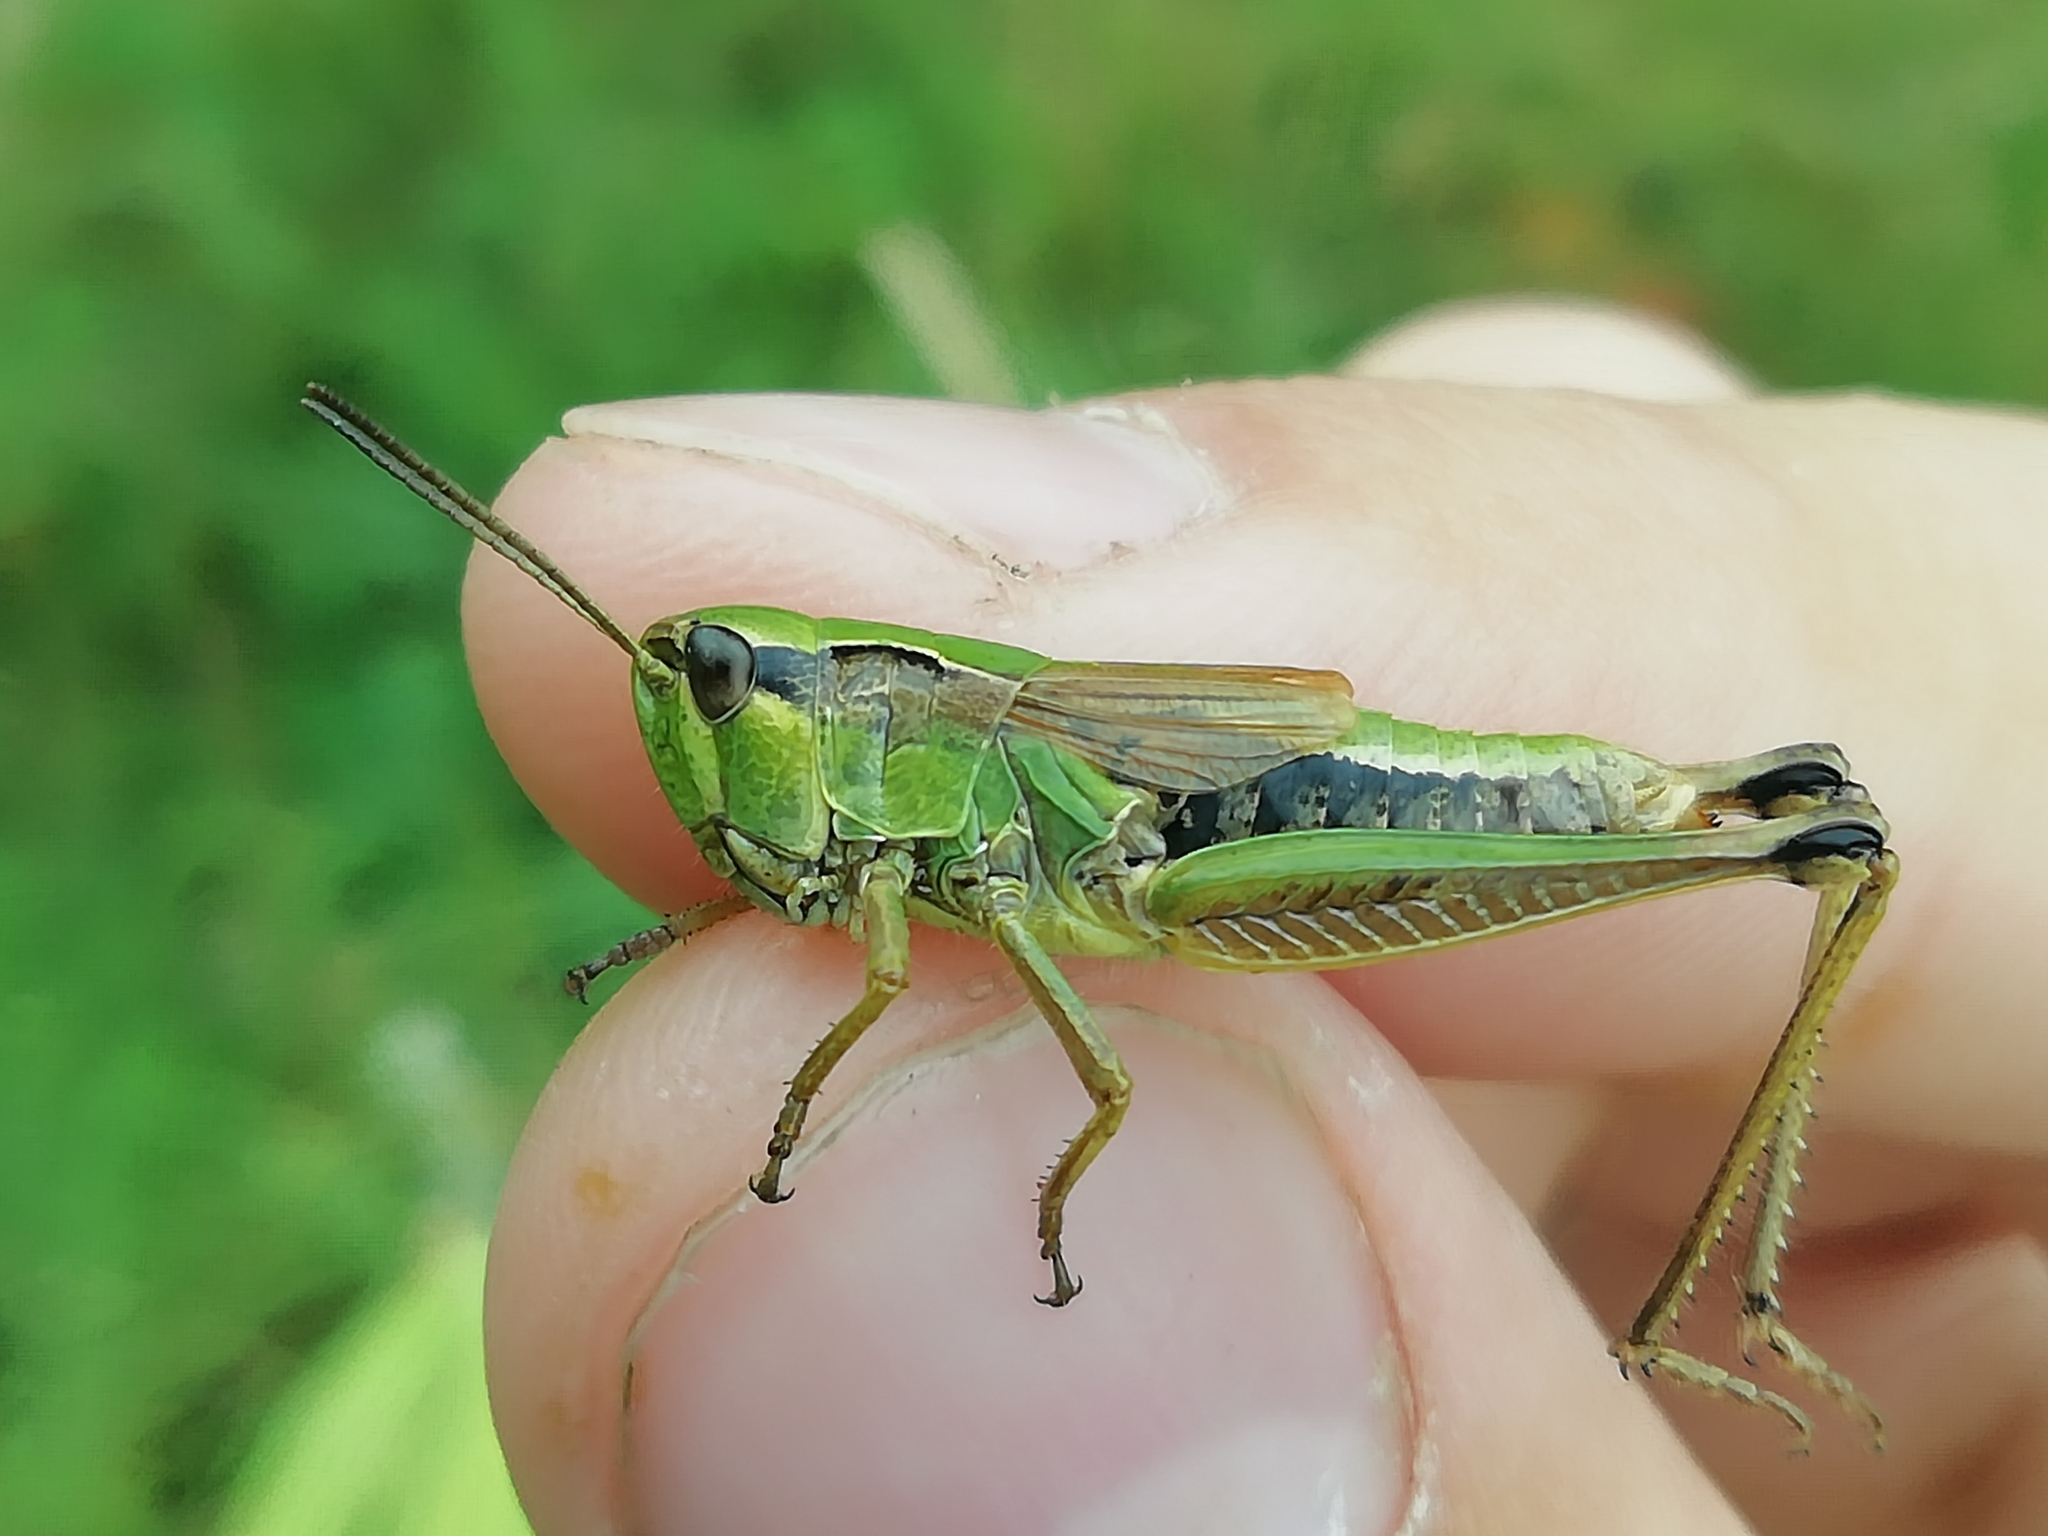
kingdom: Animalia
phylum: Arthropoda
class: Insecta
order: Orthoptera
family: Acrididae
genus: Chorthippus
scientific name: Chorthippus fallax
